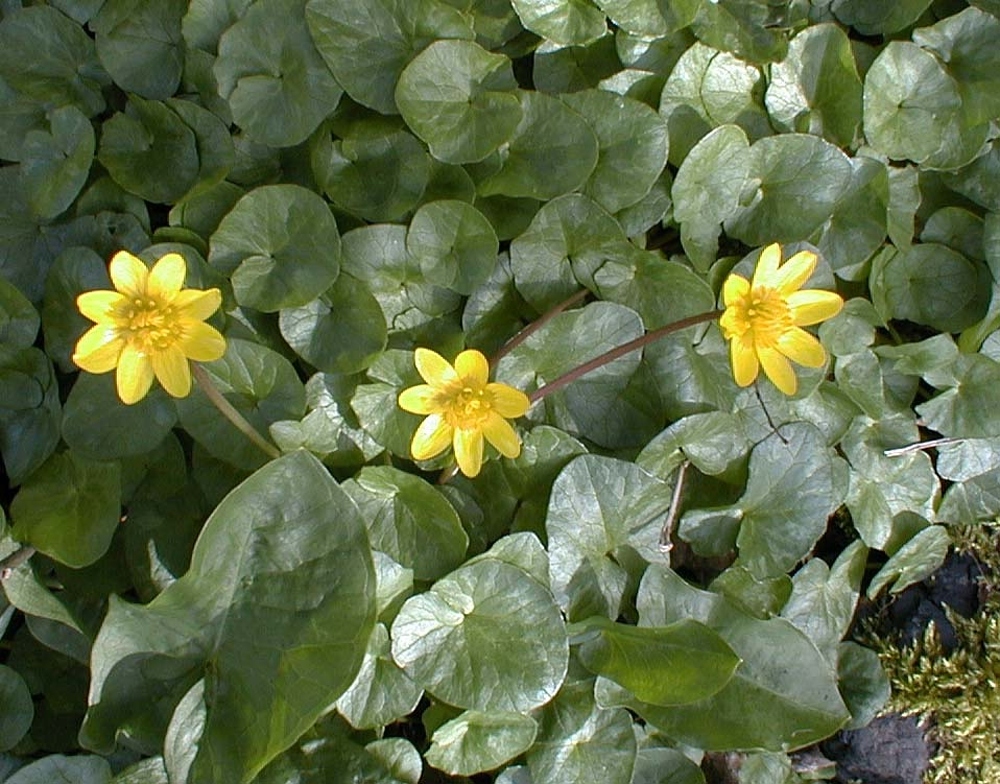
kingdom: Plantae
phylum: Tracheophyta
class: Magnoliopsida
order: Ranunculales
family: Ranunculaceae
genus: Ficaria
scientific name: Ficaria verna
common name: Lesser celandine
